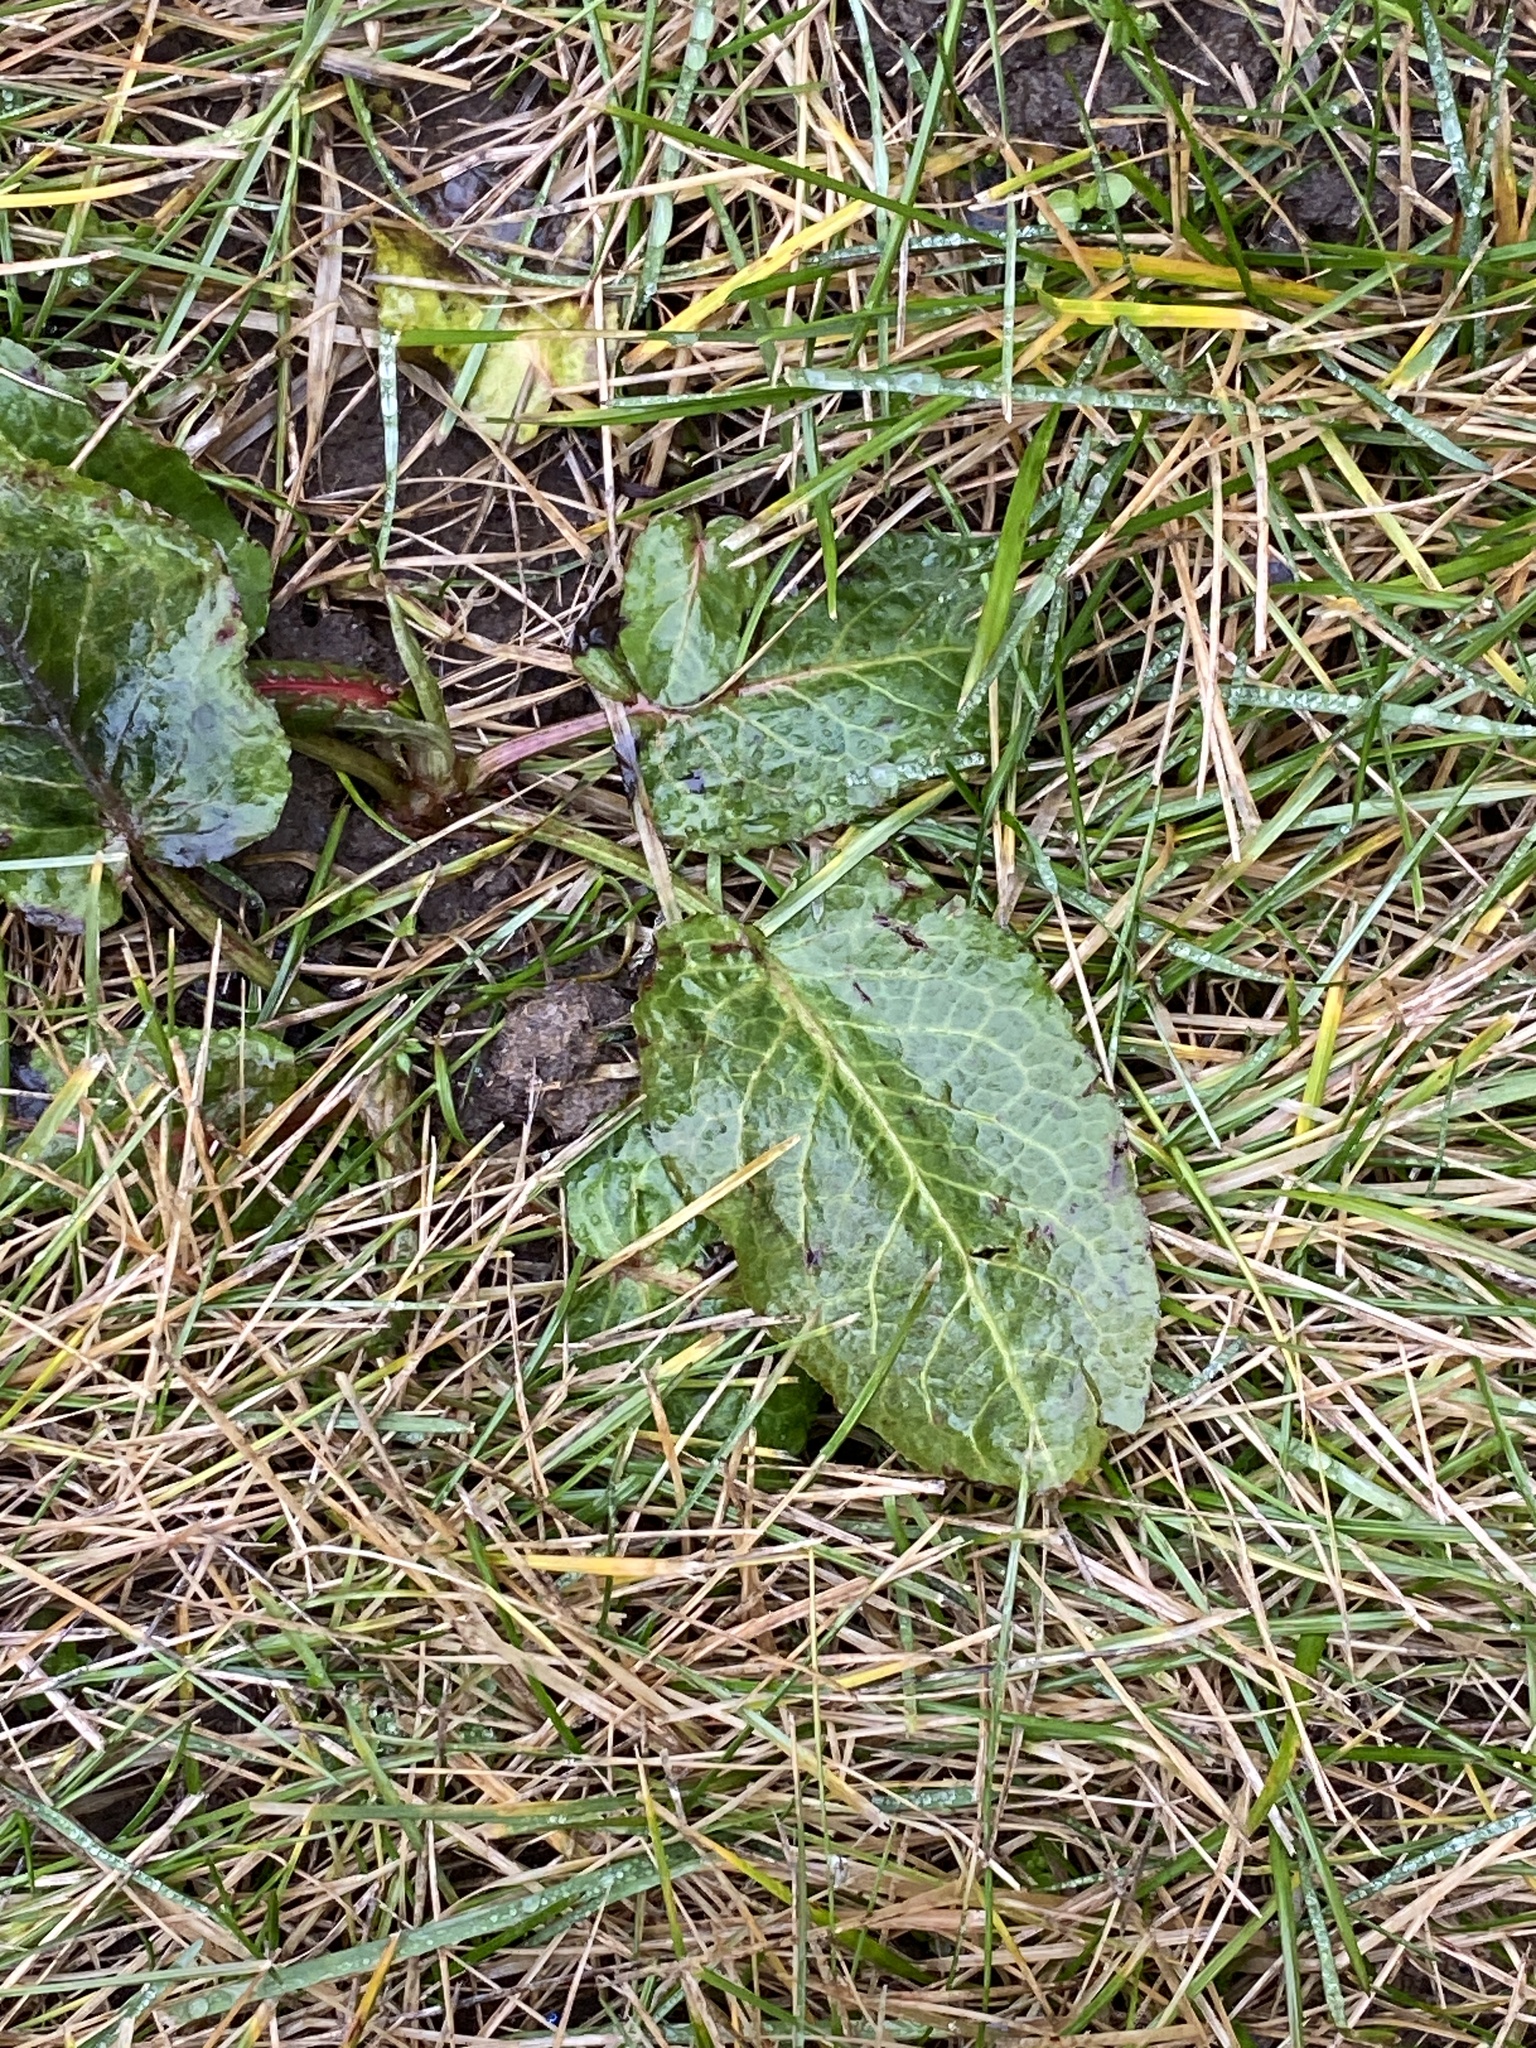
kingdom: Plantae
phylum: Tracheophyta
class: Magnoliopsida
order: Caryophyllales
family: Polygonaceae
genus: Rumex
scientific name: Rumex obtusifolius
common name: Bitter dock
